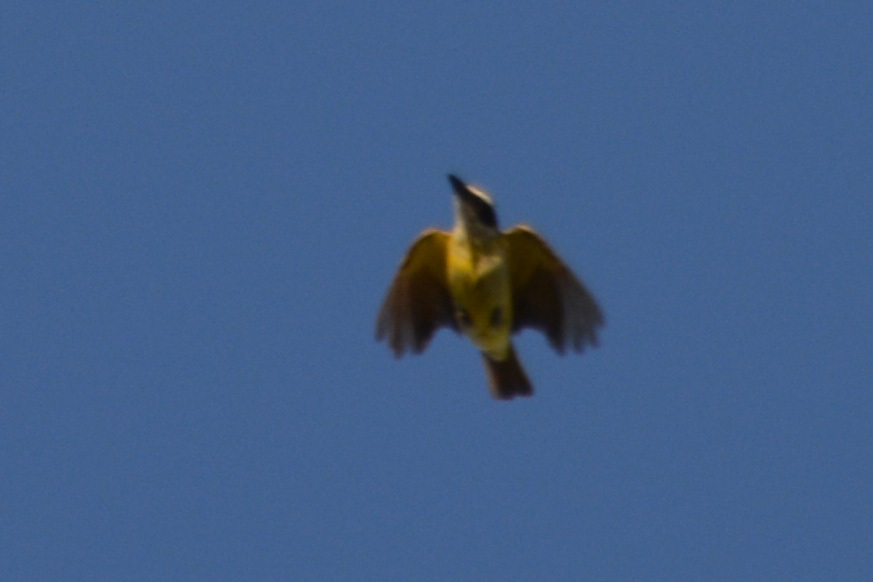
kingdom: Animalia
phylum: Chordata
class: Aves
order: Passeriformes
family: Tyrannidae
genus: Pitangus
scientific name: Pitangus sulphuratus
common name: Great kiskadee
